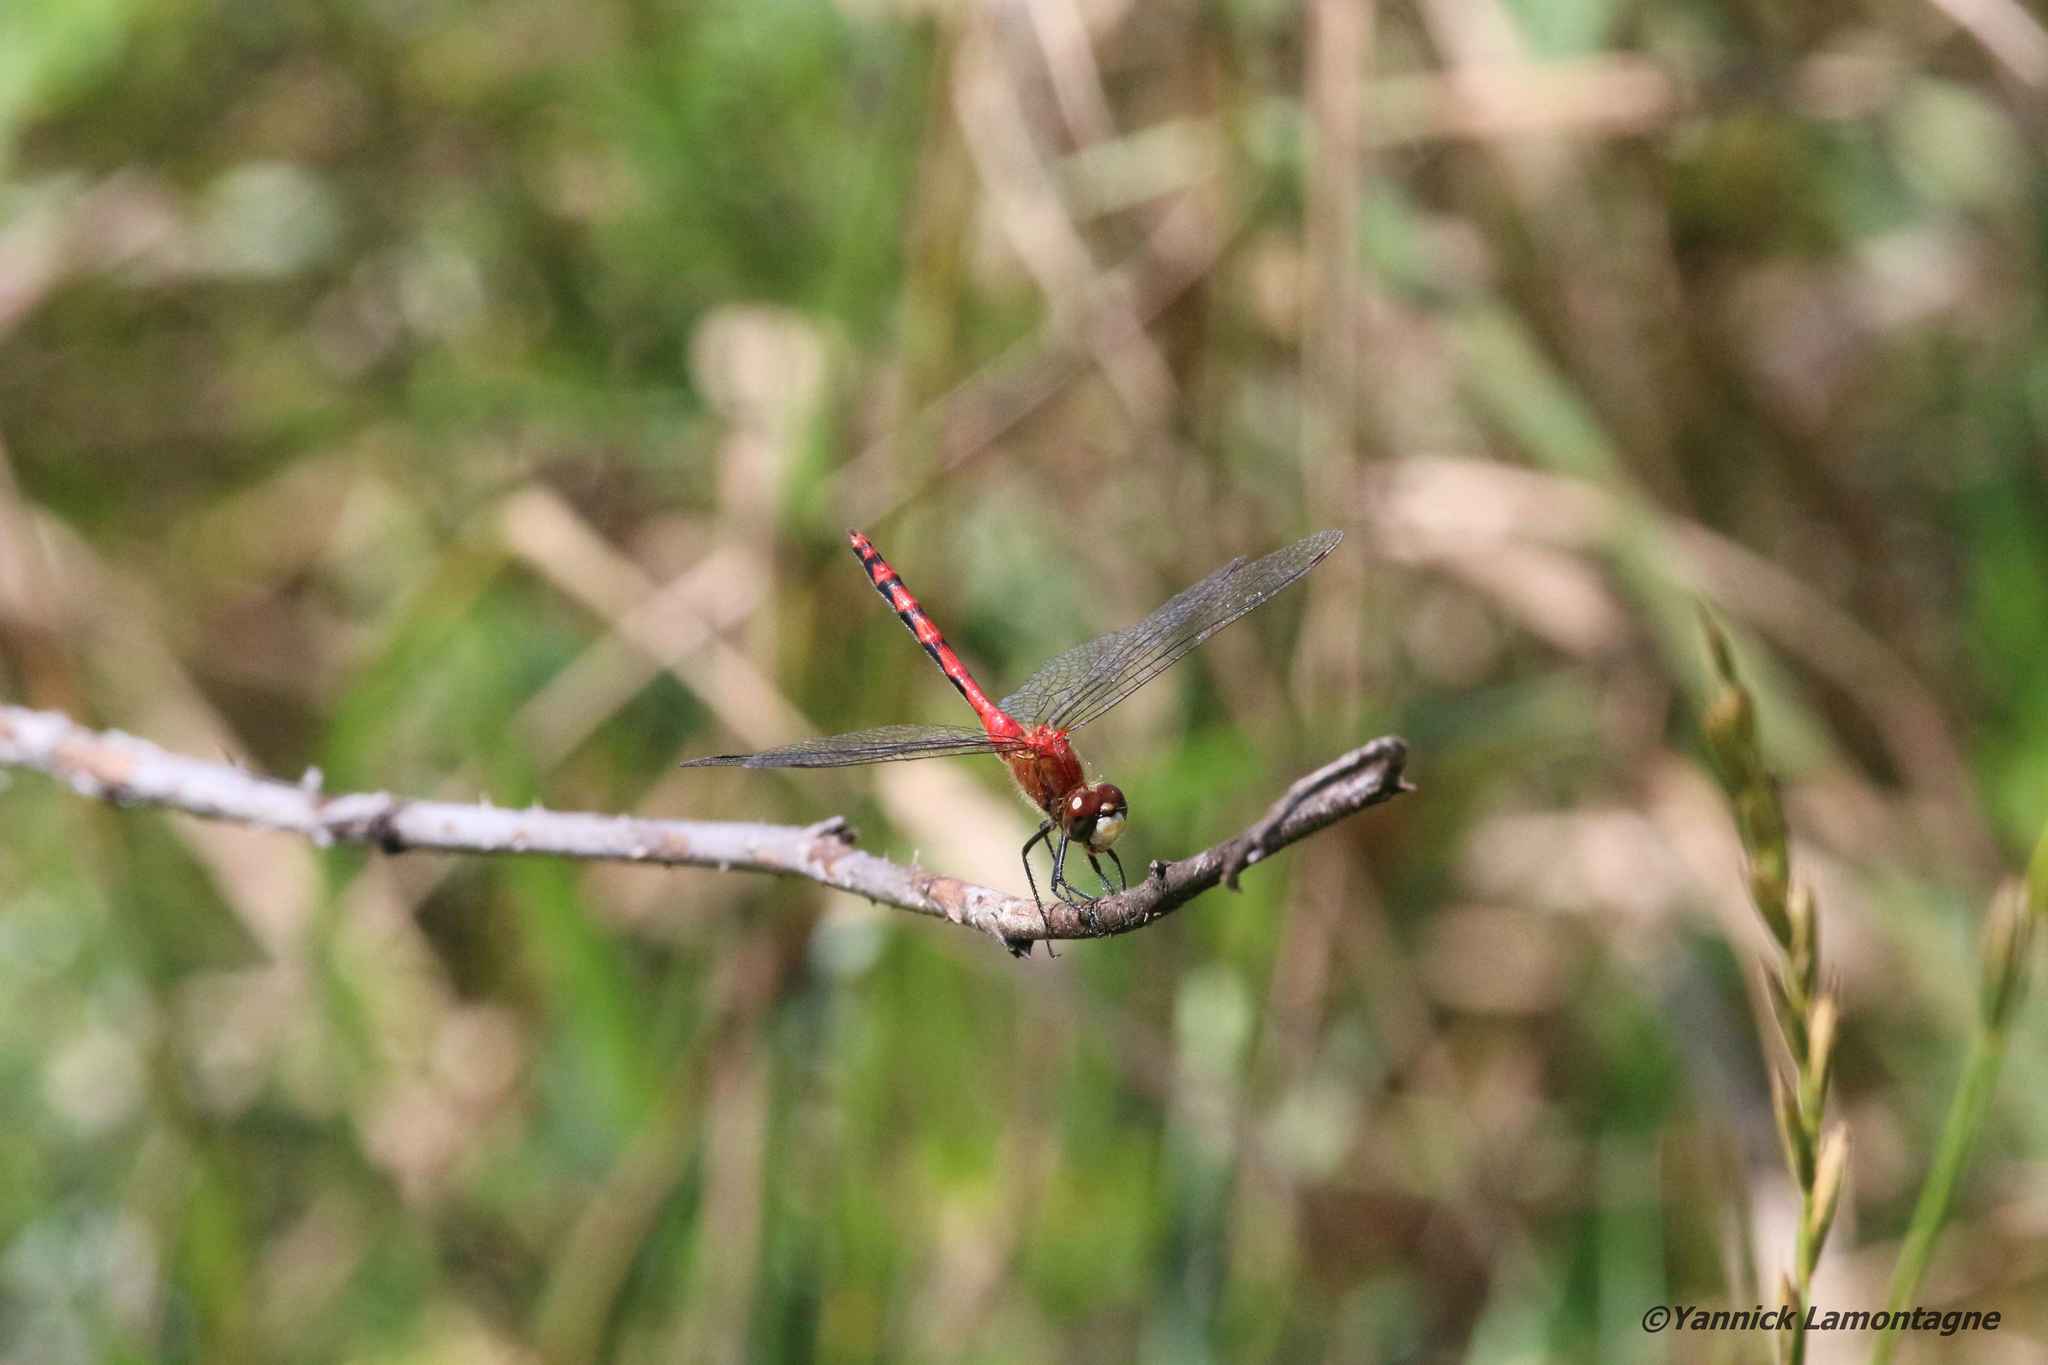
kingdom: Animalia
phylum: Arthropoda
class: Insecta
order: Odonata
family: Libellulidae
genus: Sympetrum
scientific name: Sympetrum obtrusum
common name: White-faced meadowhawk
